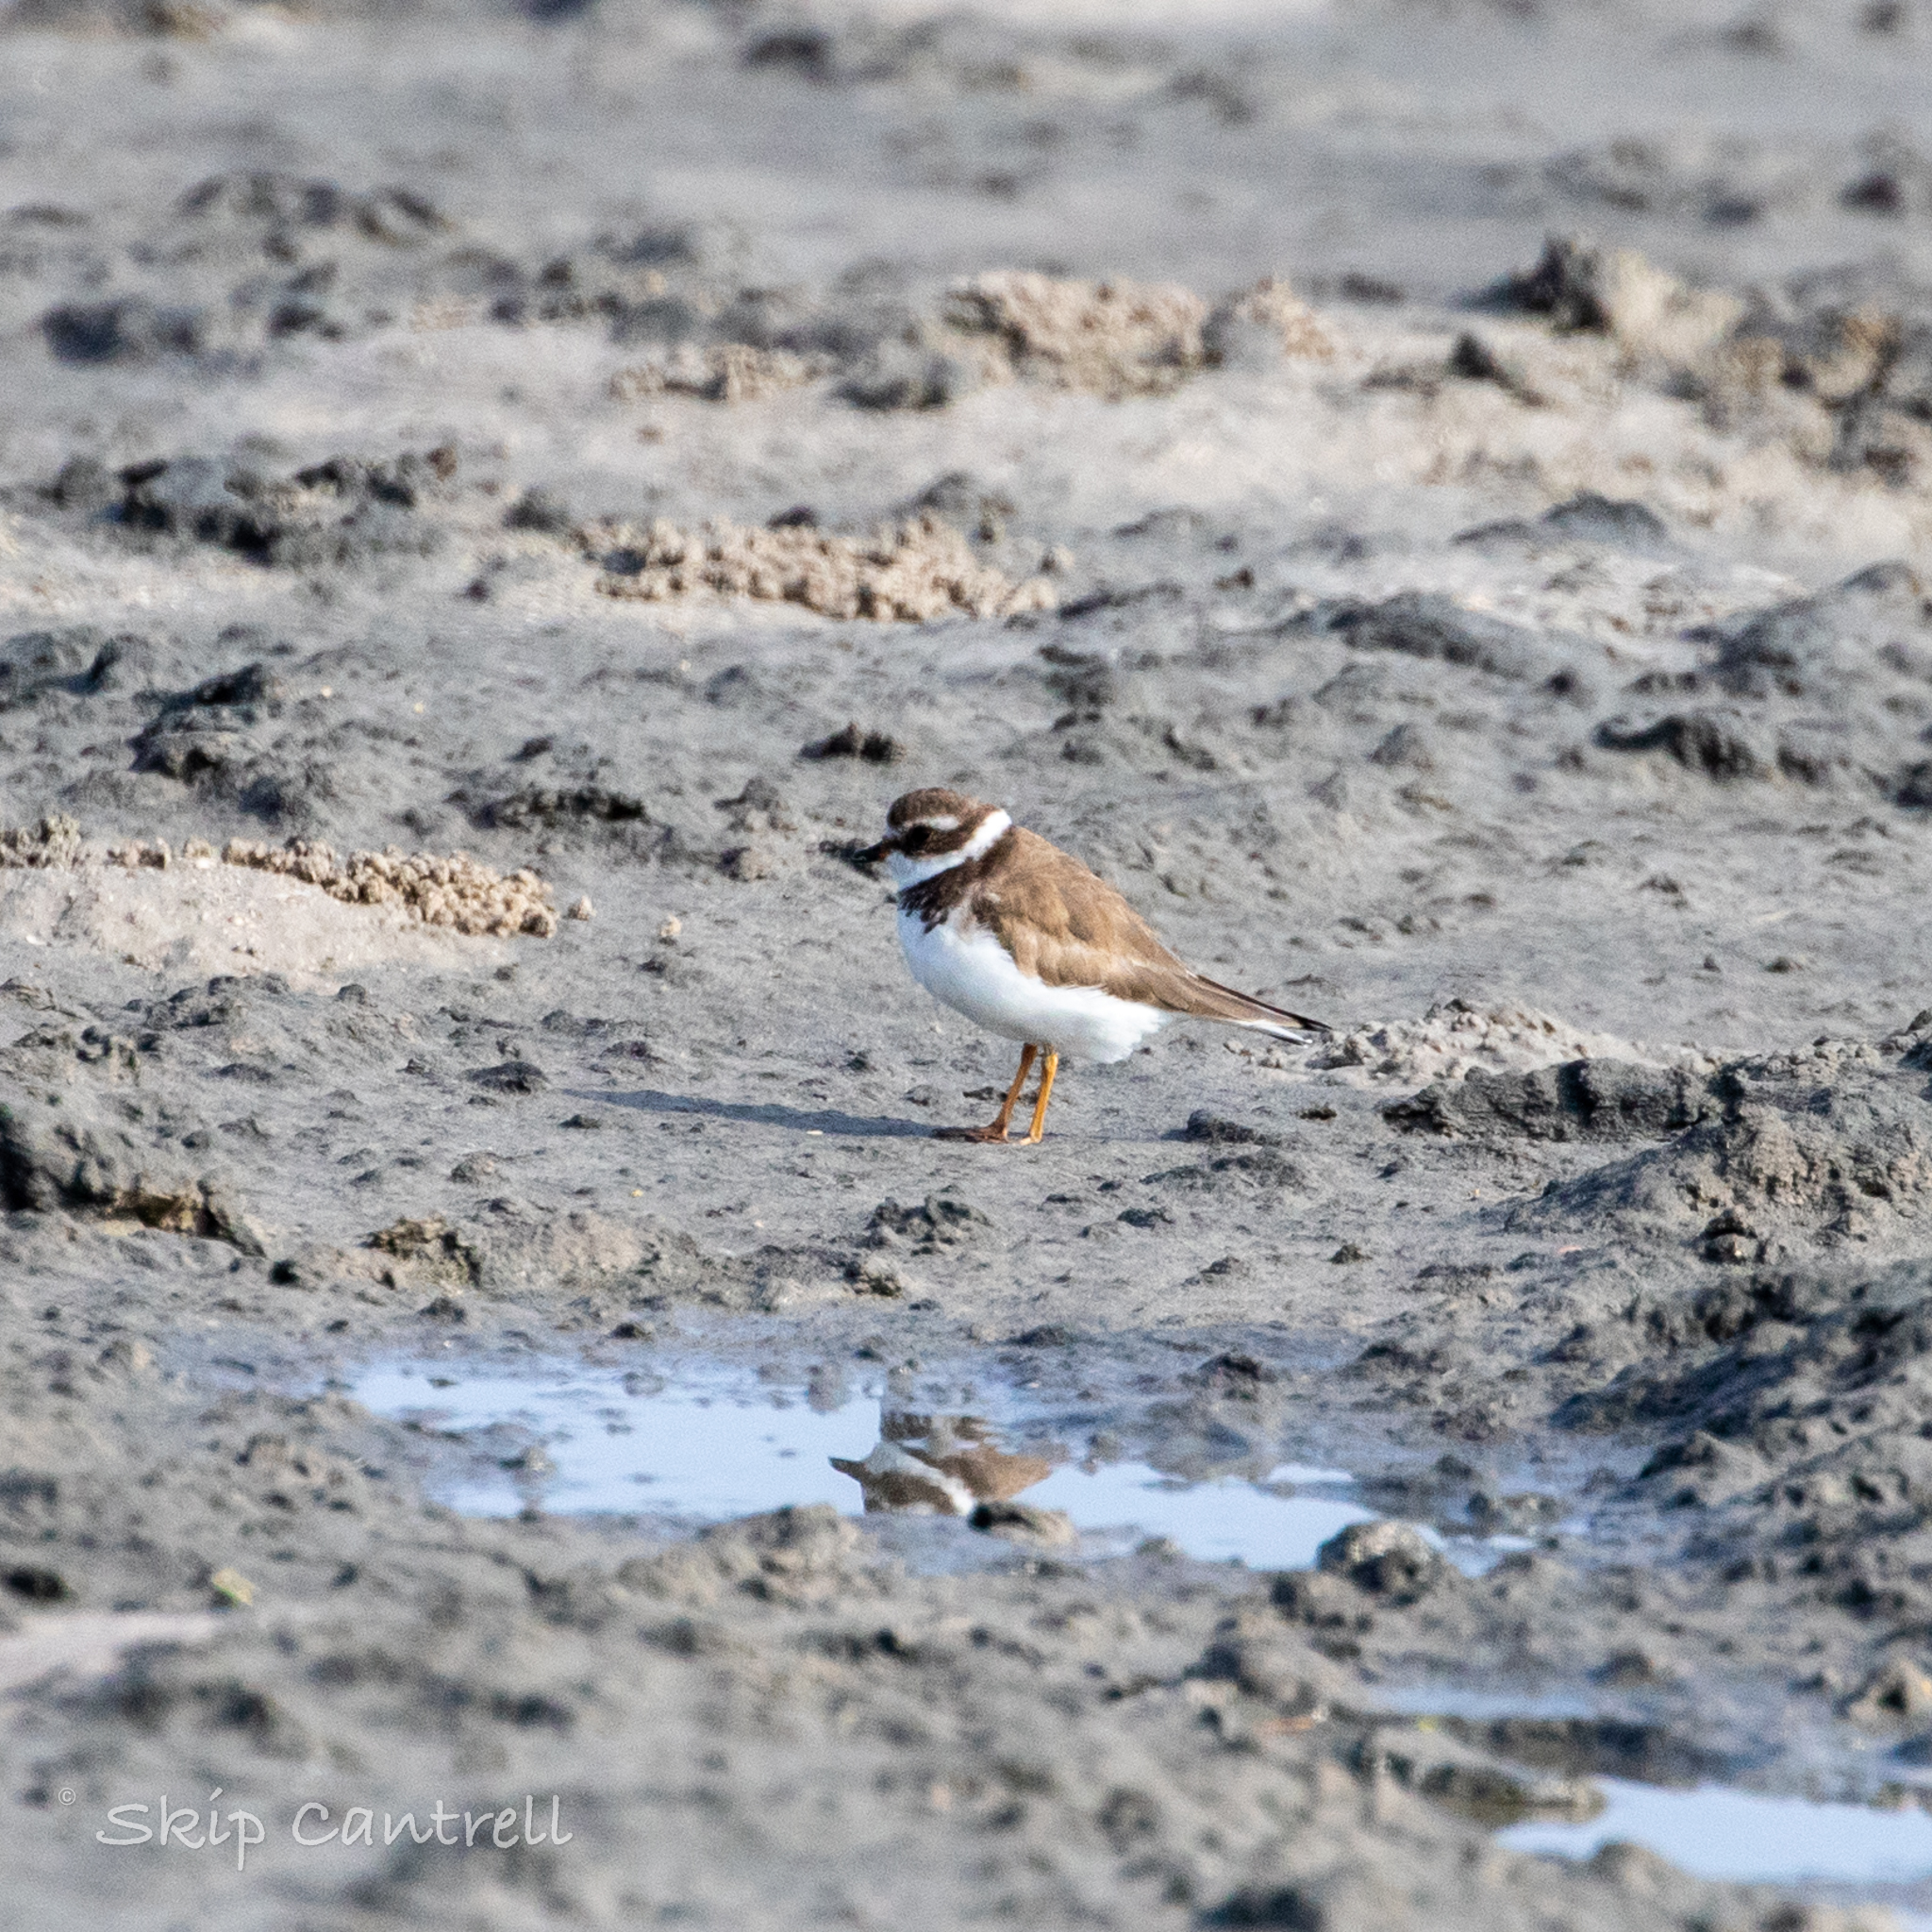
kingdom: Animalia
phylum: Chordata
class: Aves
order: Charadriiformes
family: Charadriidae
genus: Charadrius
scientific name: Charadrius semipalmatus
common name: Semipalmated plover
